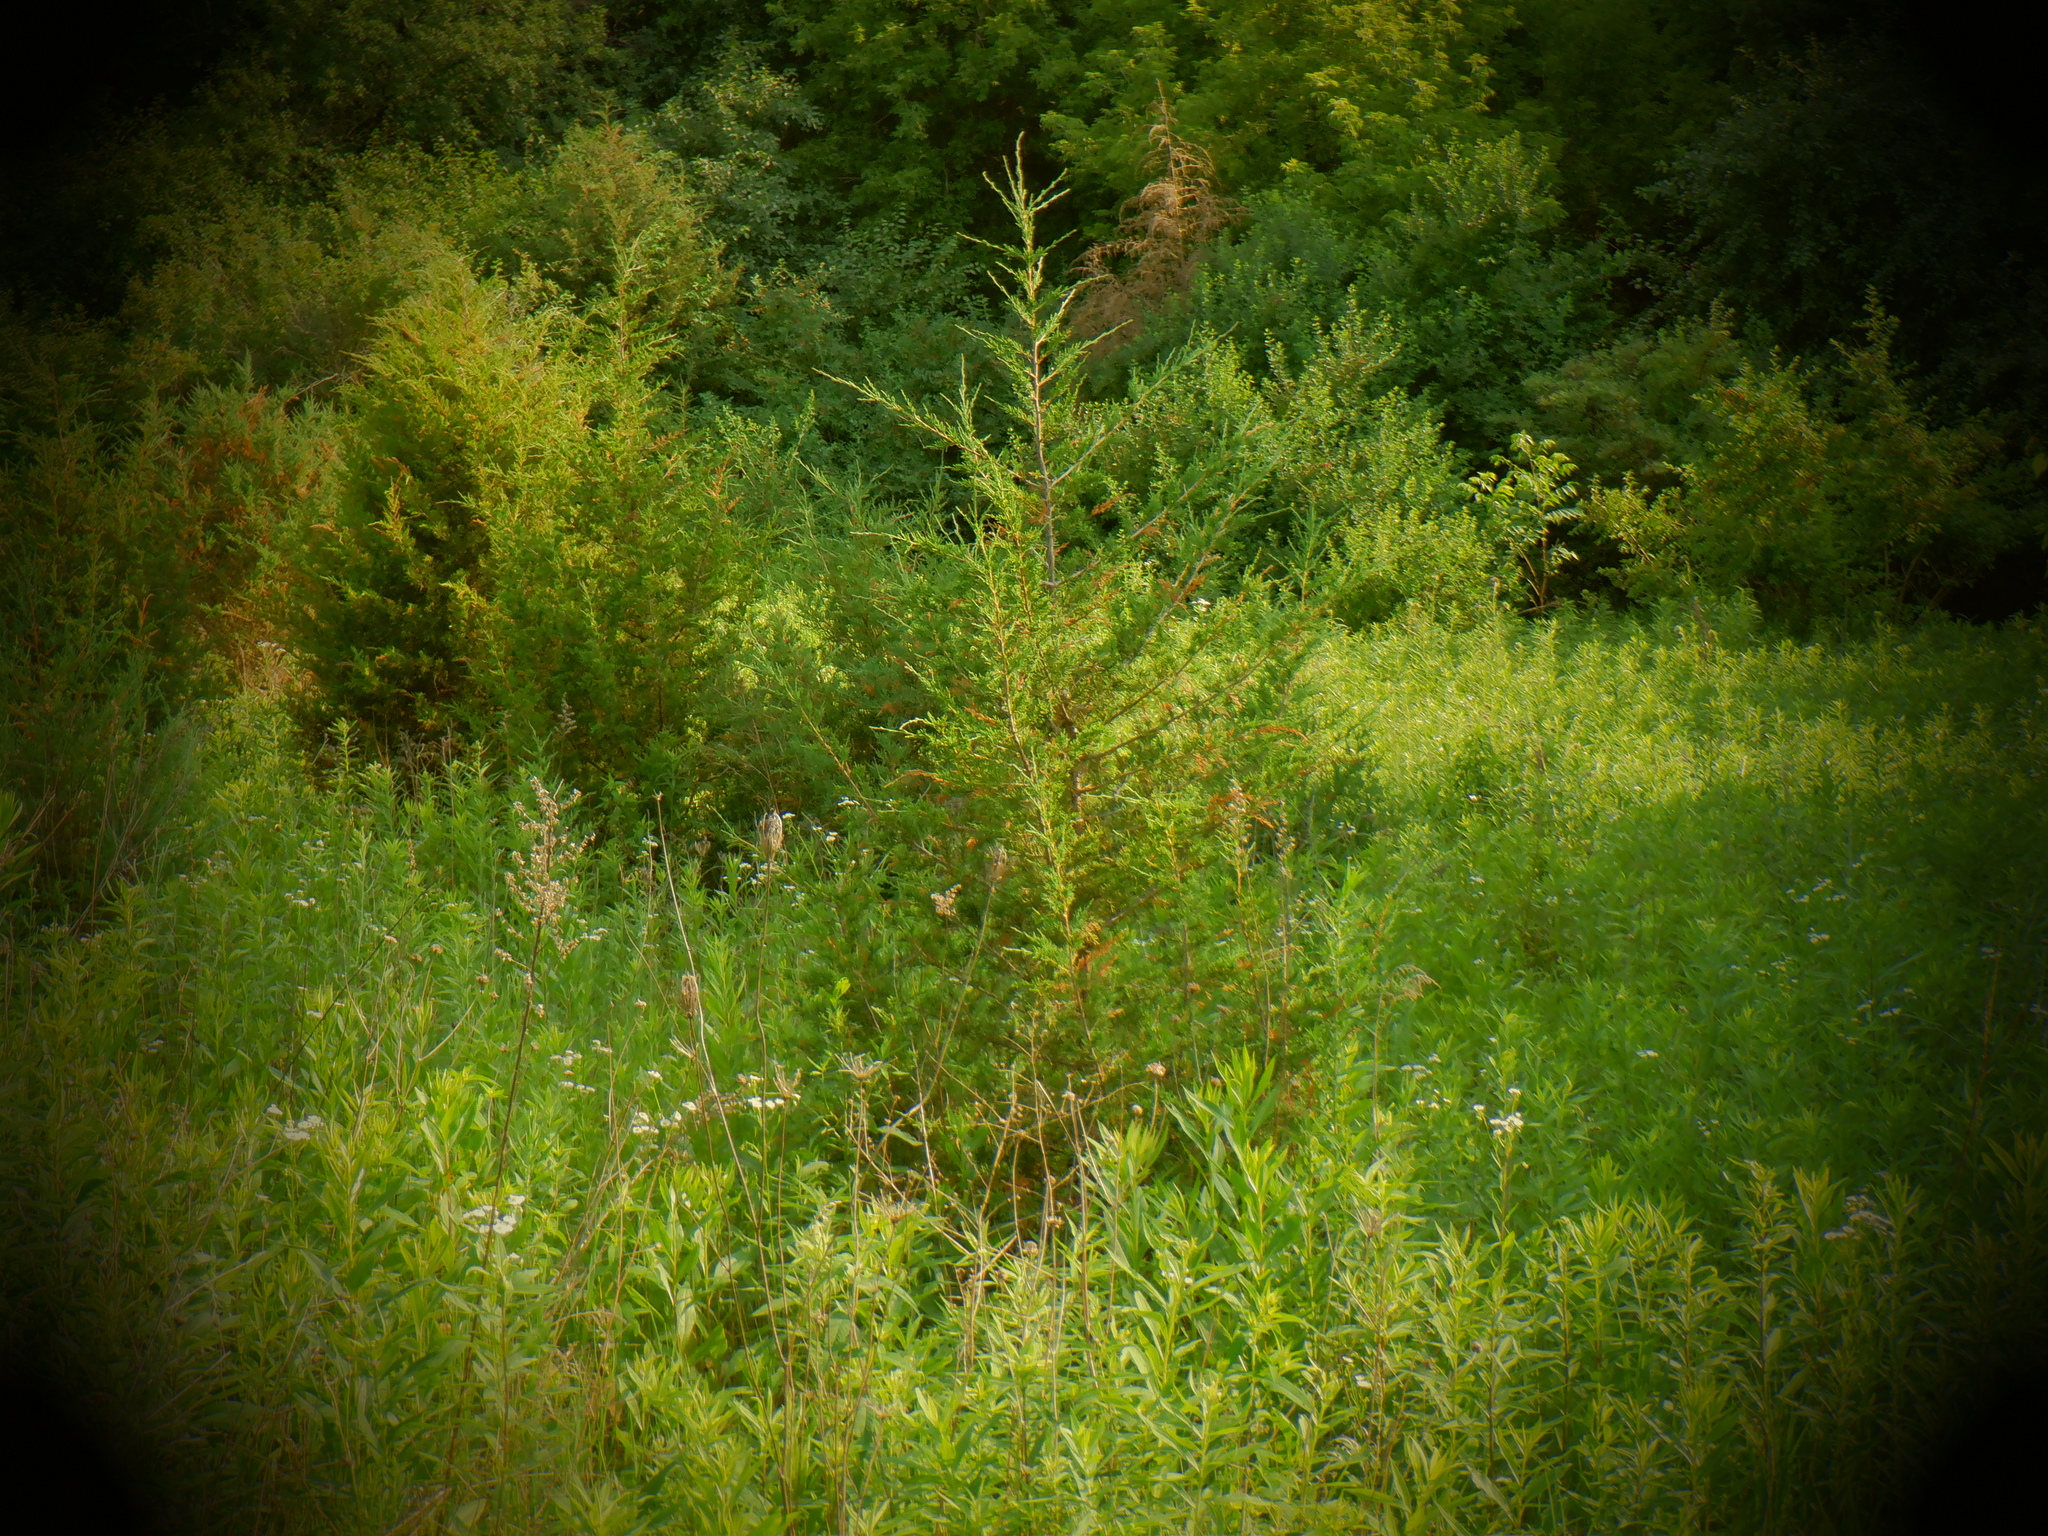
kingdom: Plantae
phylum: Tracheophyta
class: Pinopsida
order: Pinales
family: Cupressaceae
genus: Juniperus
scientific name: Juniperus virginiana
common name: Red juniper
